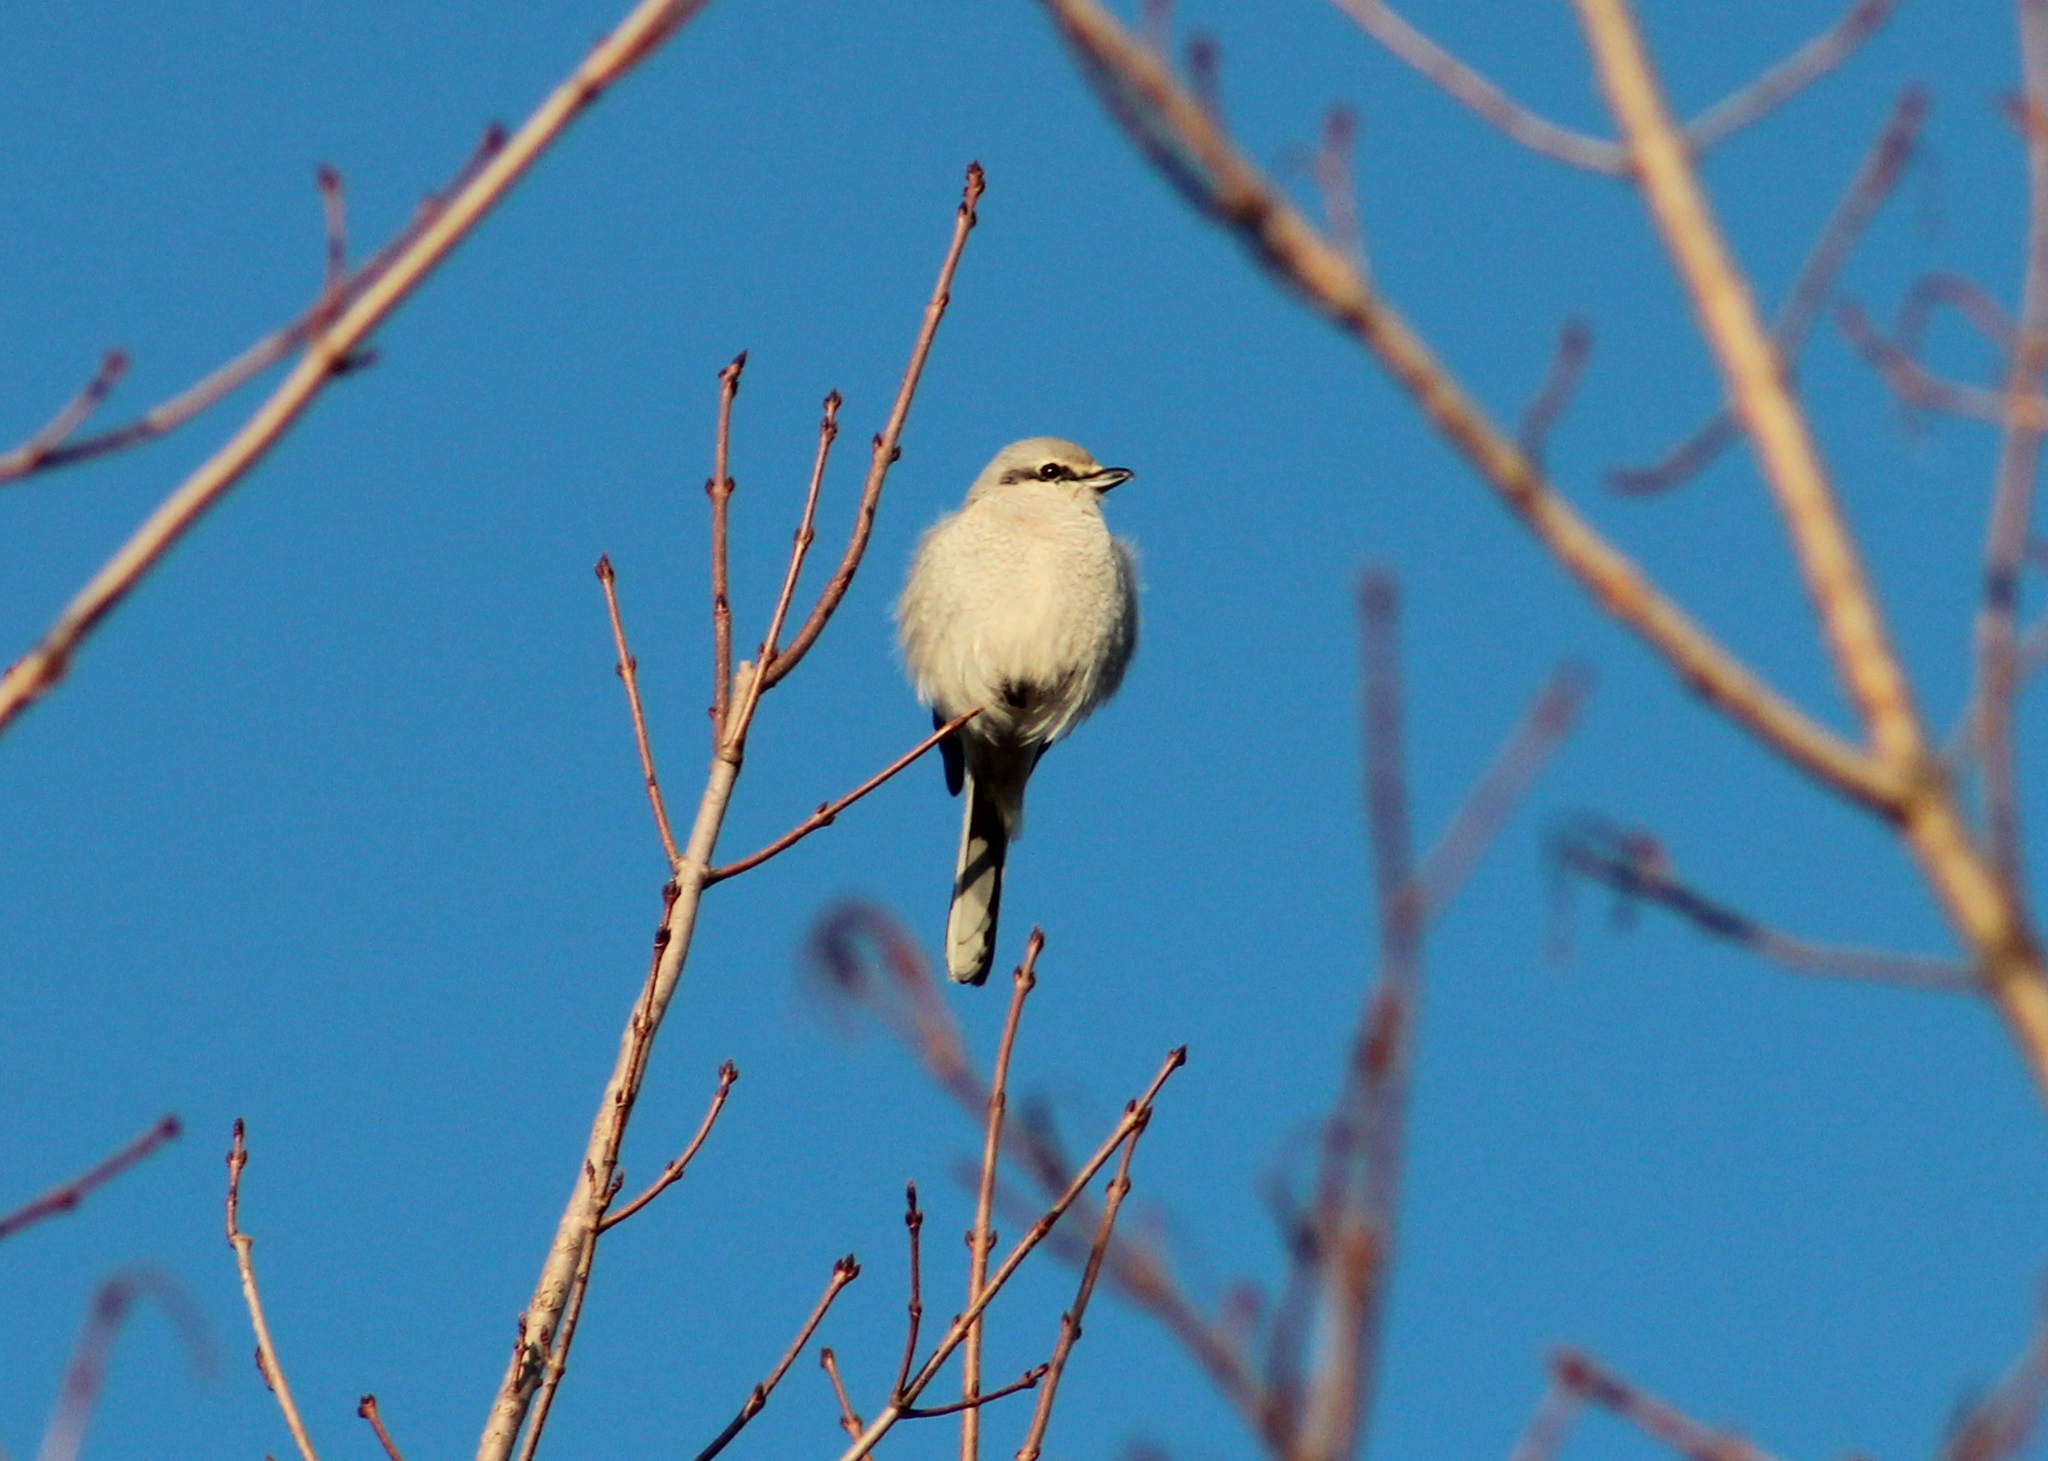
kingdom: Animalia
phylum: Chordata
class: Aves
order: Passeriformes
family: Laniidae
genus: Lanius
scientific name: Lanius borealis
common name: Northern shrike
